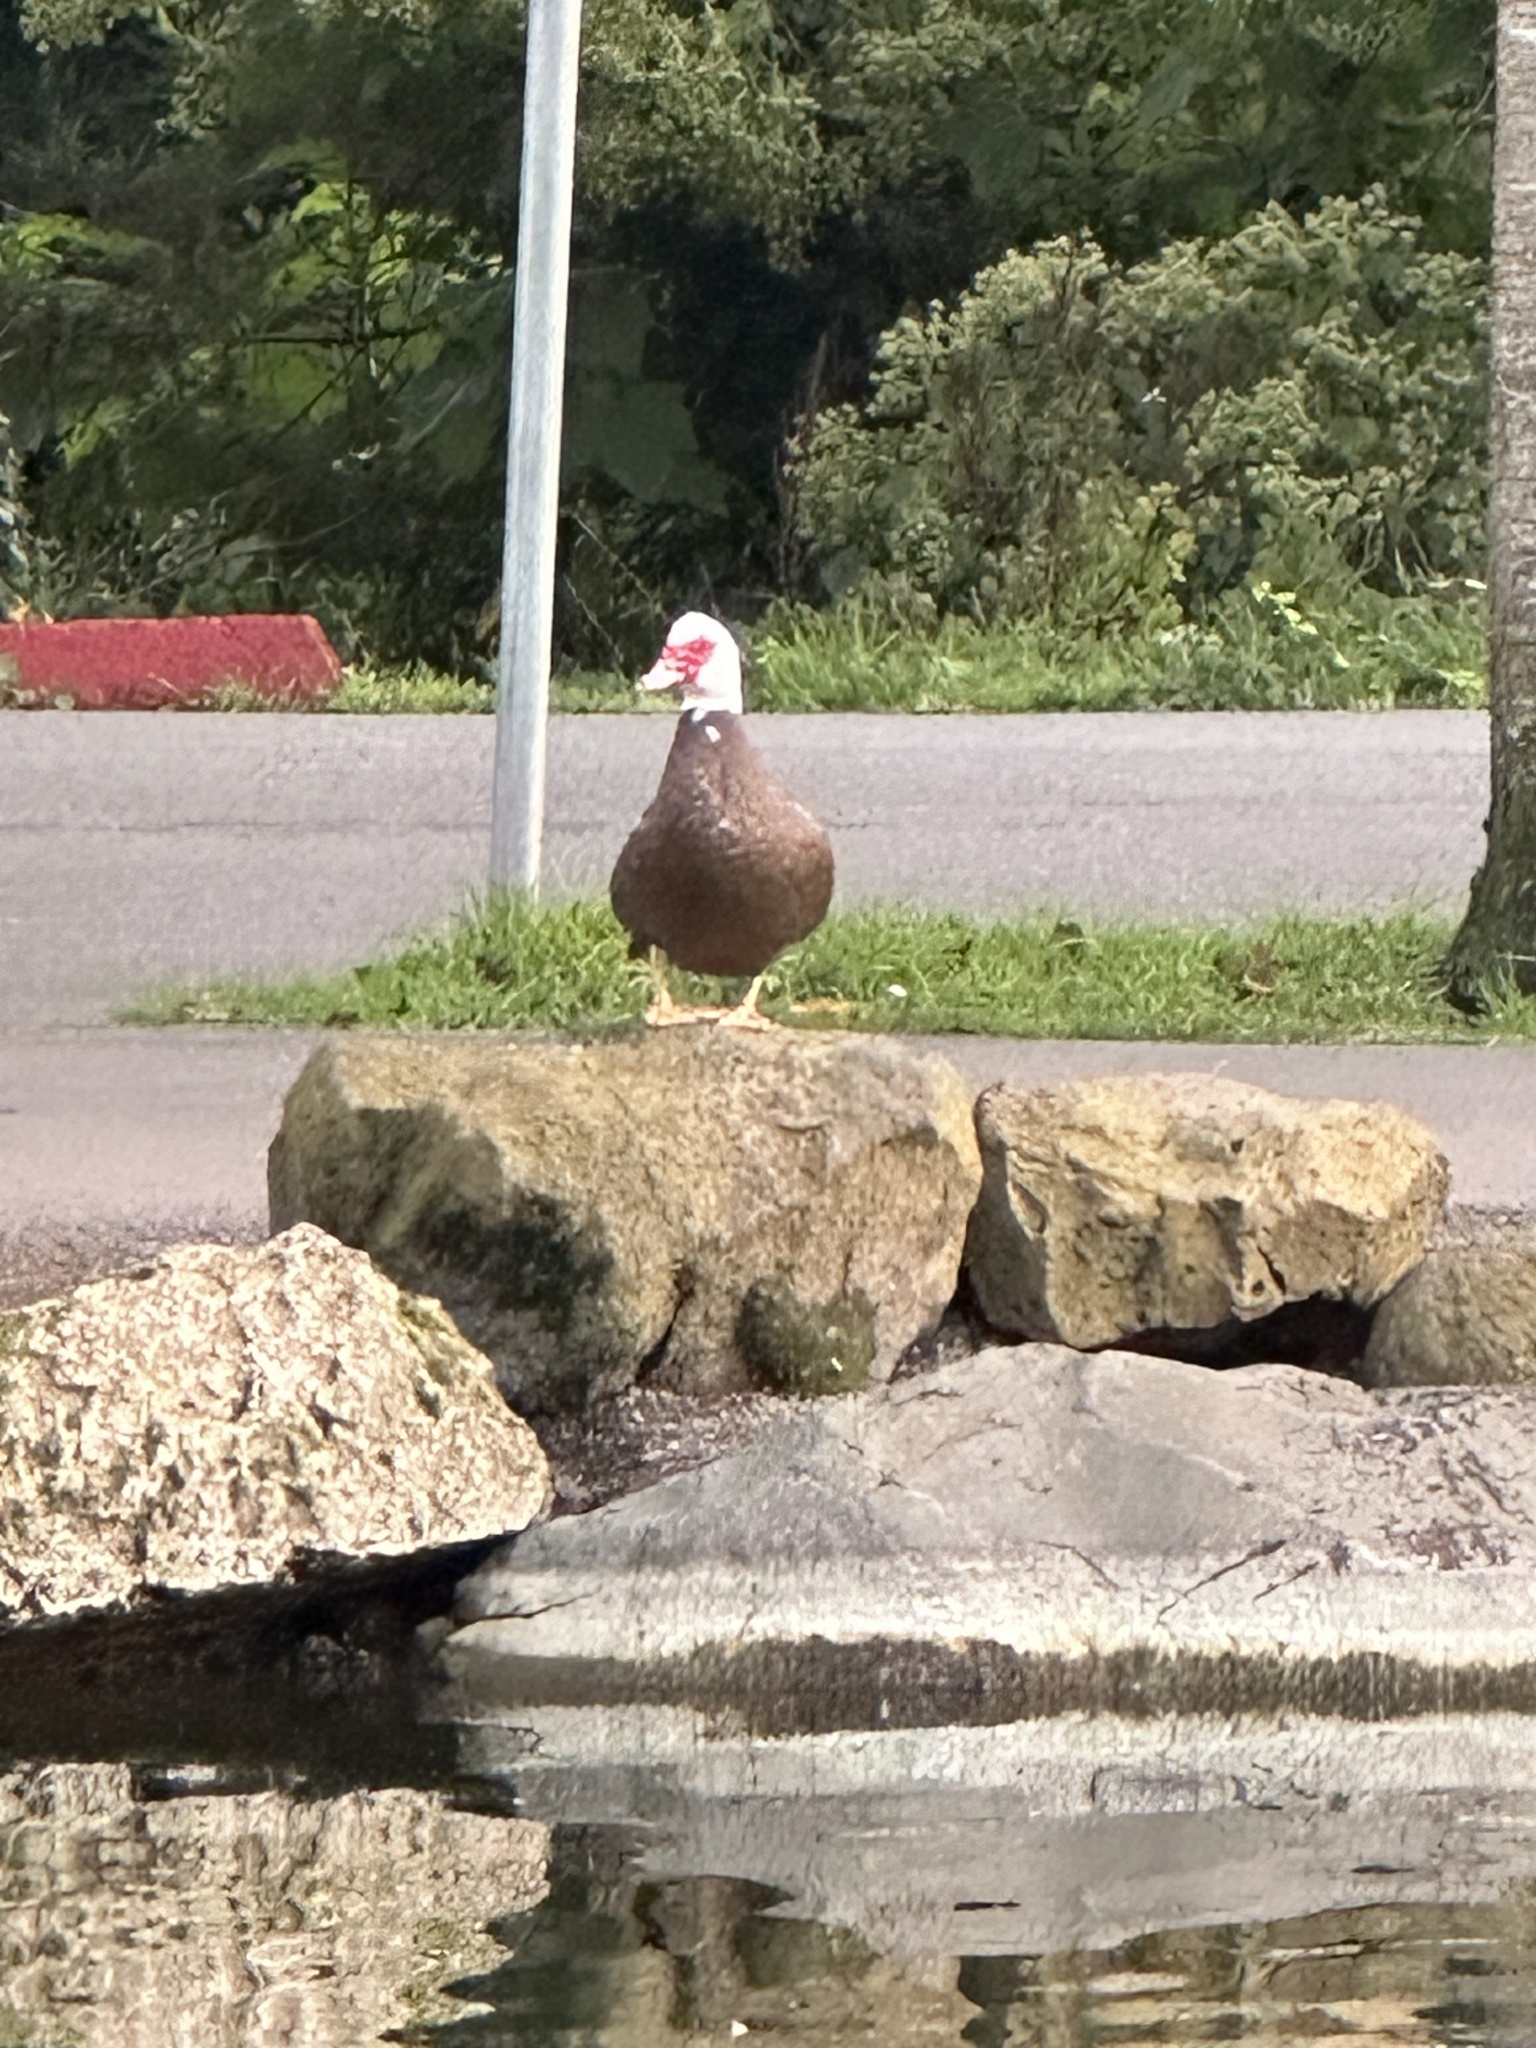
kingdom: Animalia
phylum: Chordata
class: Aves
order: Anseriformes
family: Anatidae
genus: Cairina
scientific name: Cairina moschata
